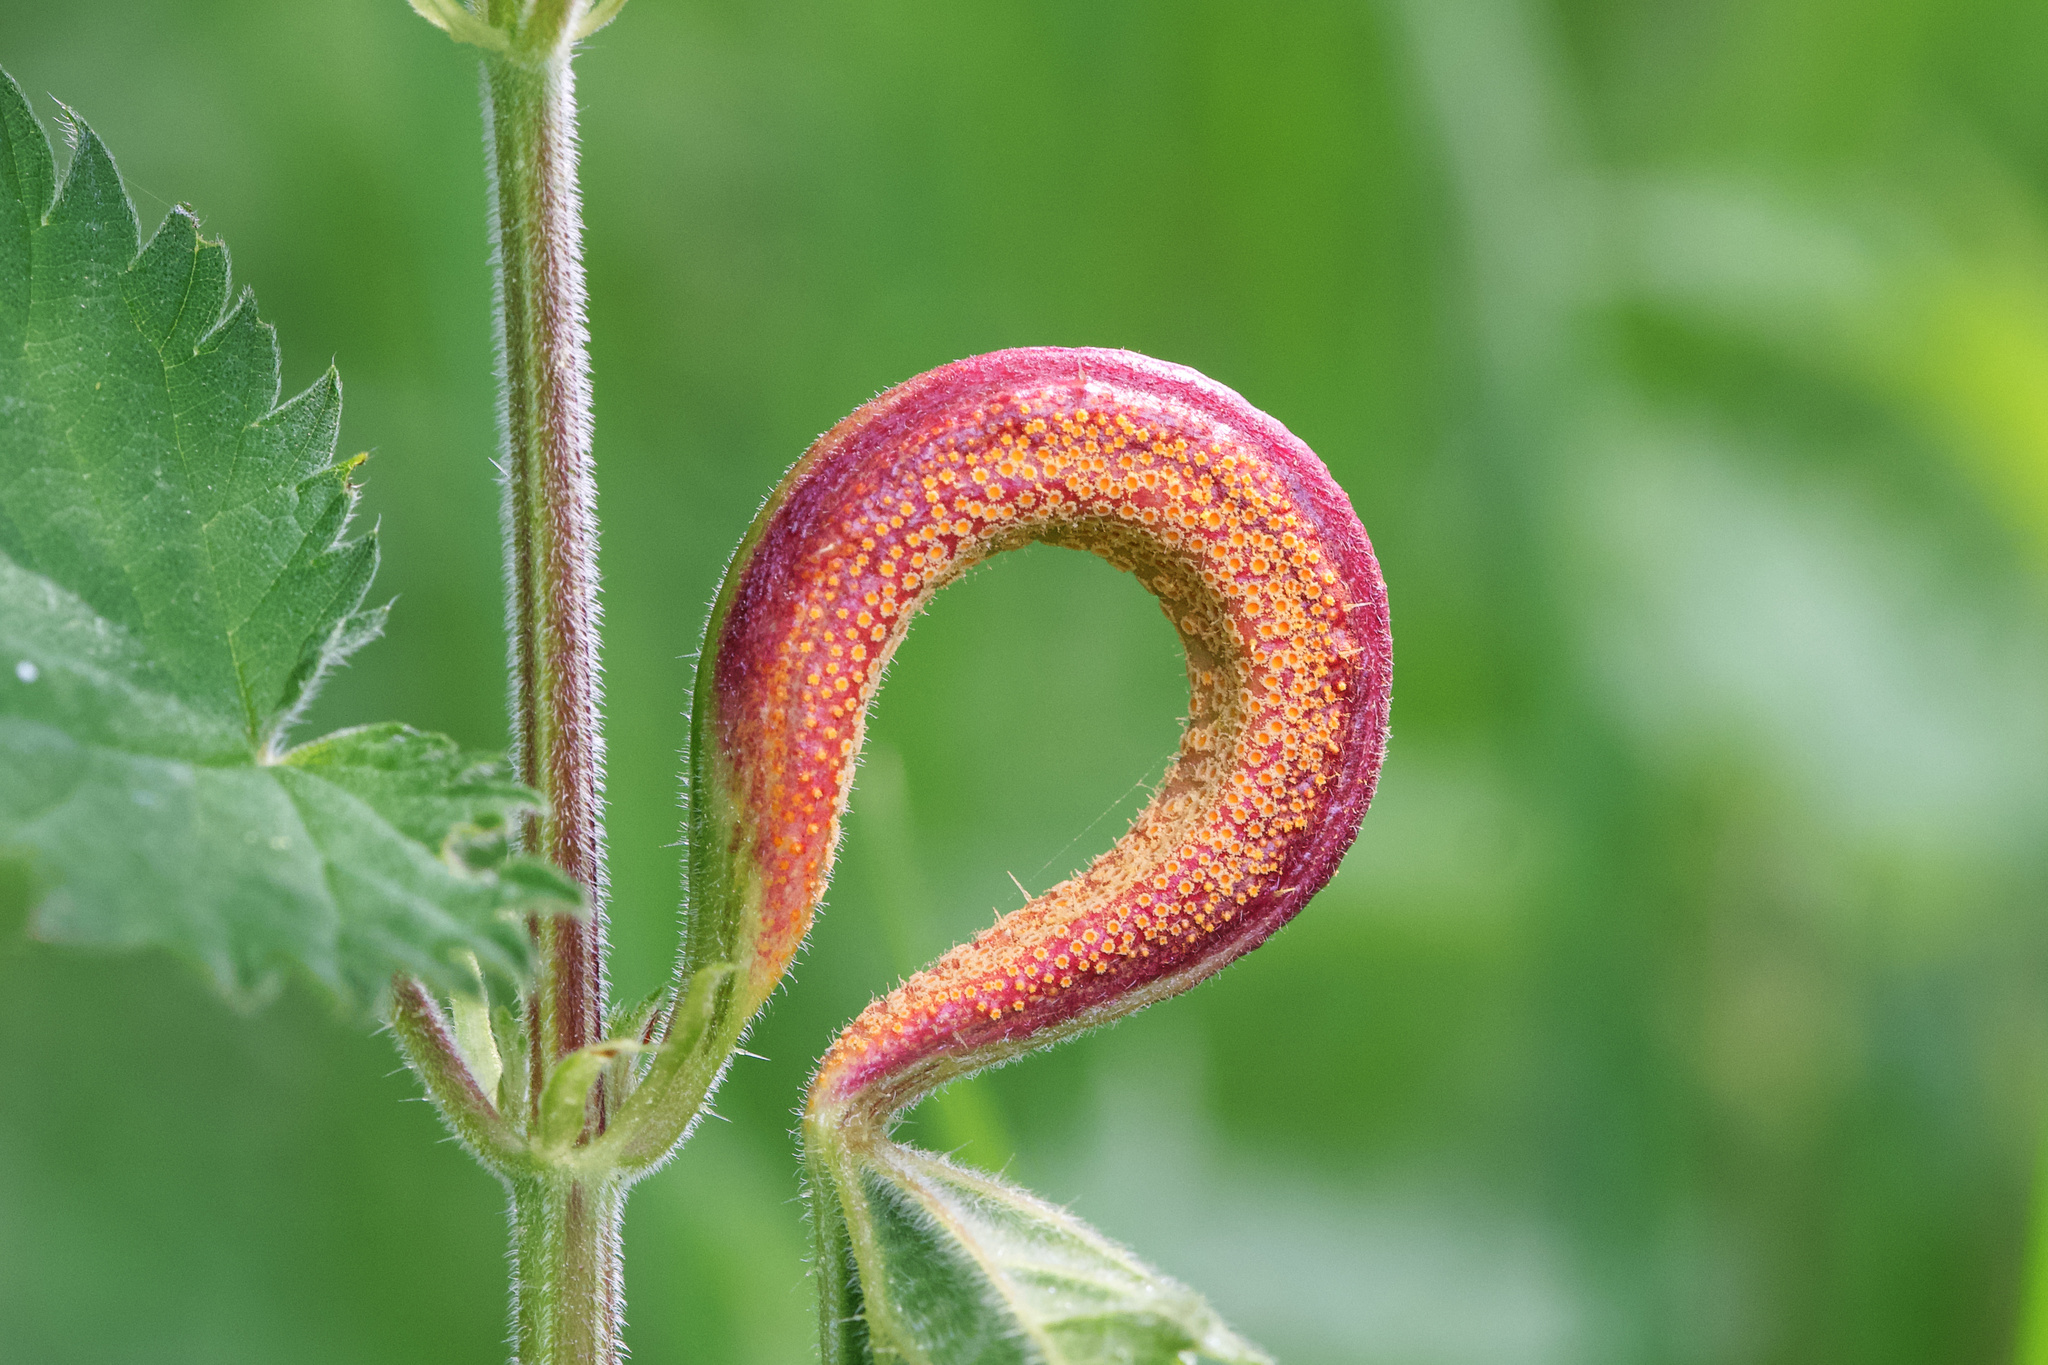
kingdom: Fungi
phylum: Basidiomycota
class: Pucciniomycetes
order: Pucciniales
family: Pucciniaceae
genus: Puccinia
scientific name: Puccinia urticata
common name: Nettle clustercup rust fungus
